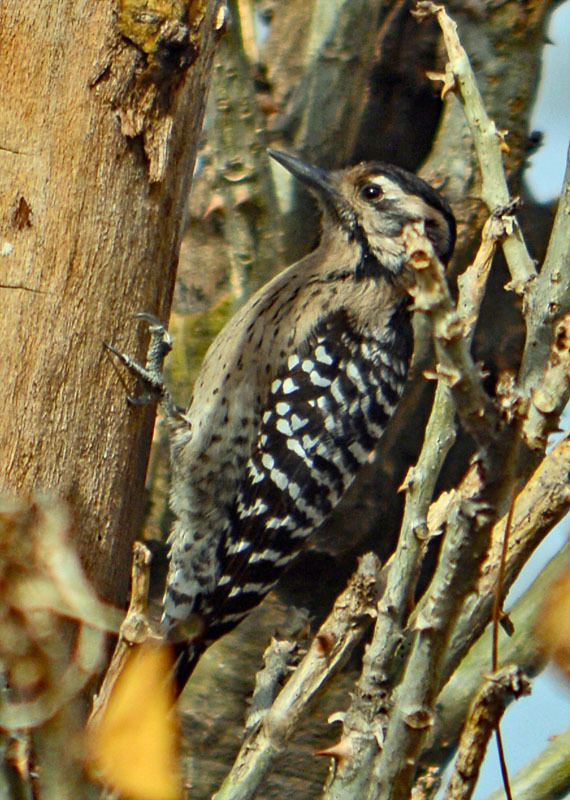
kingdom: Animalia
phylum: Chordata
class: Aves
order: Piciformes
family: Picidae
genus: Dryobates
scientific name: Dryobates scalaris
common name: Ladder-backed woodpecker
